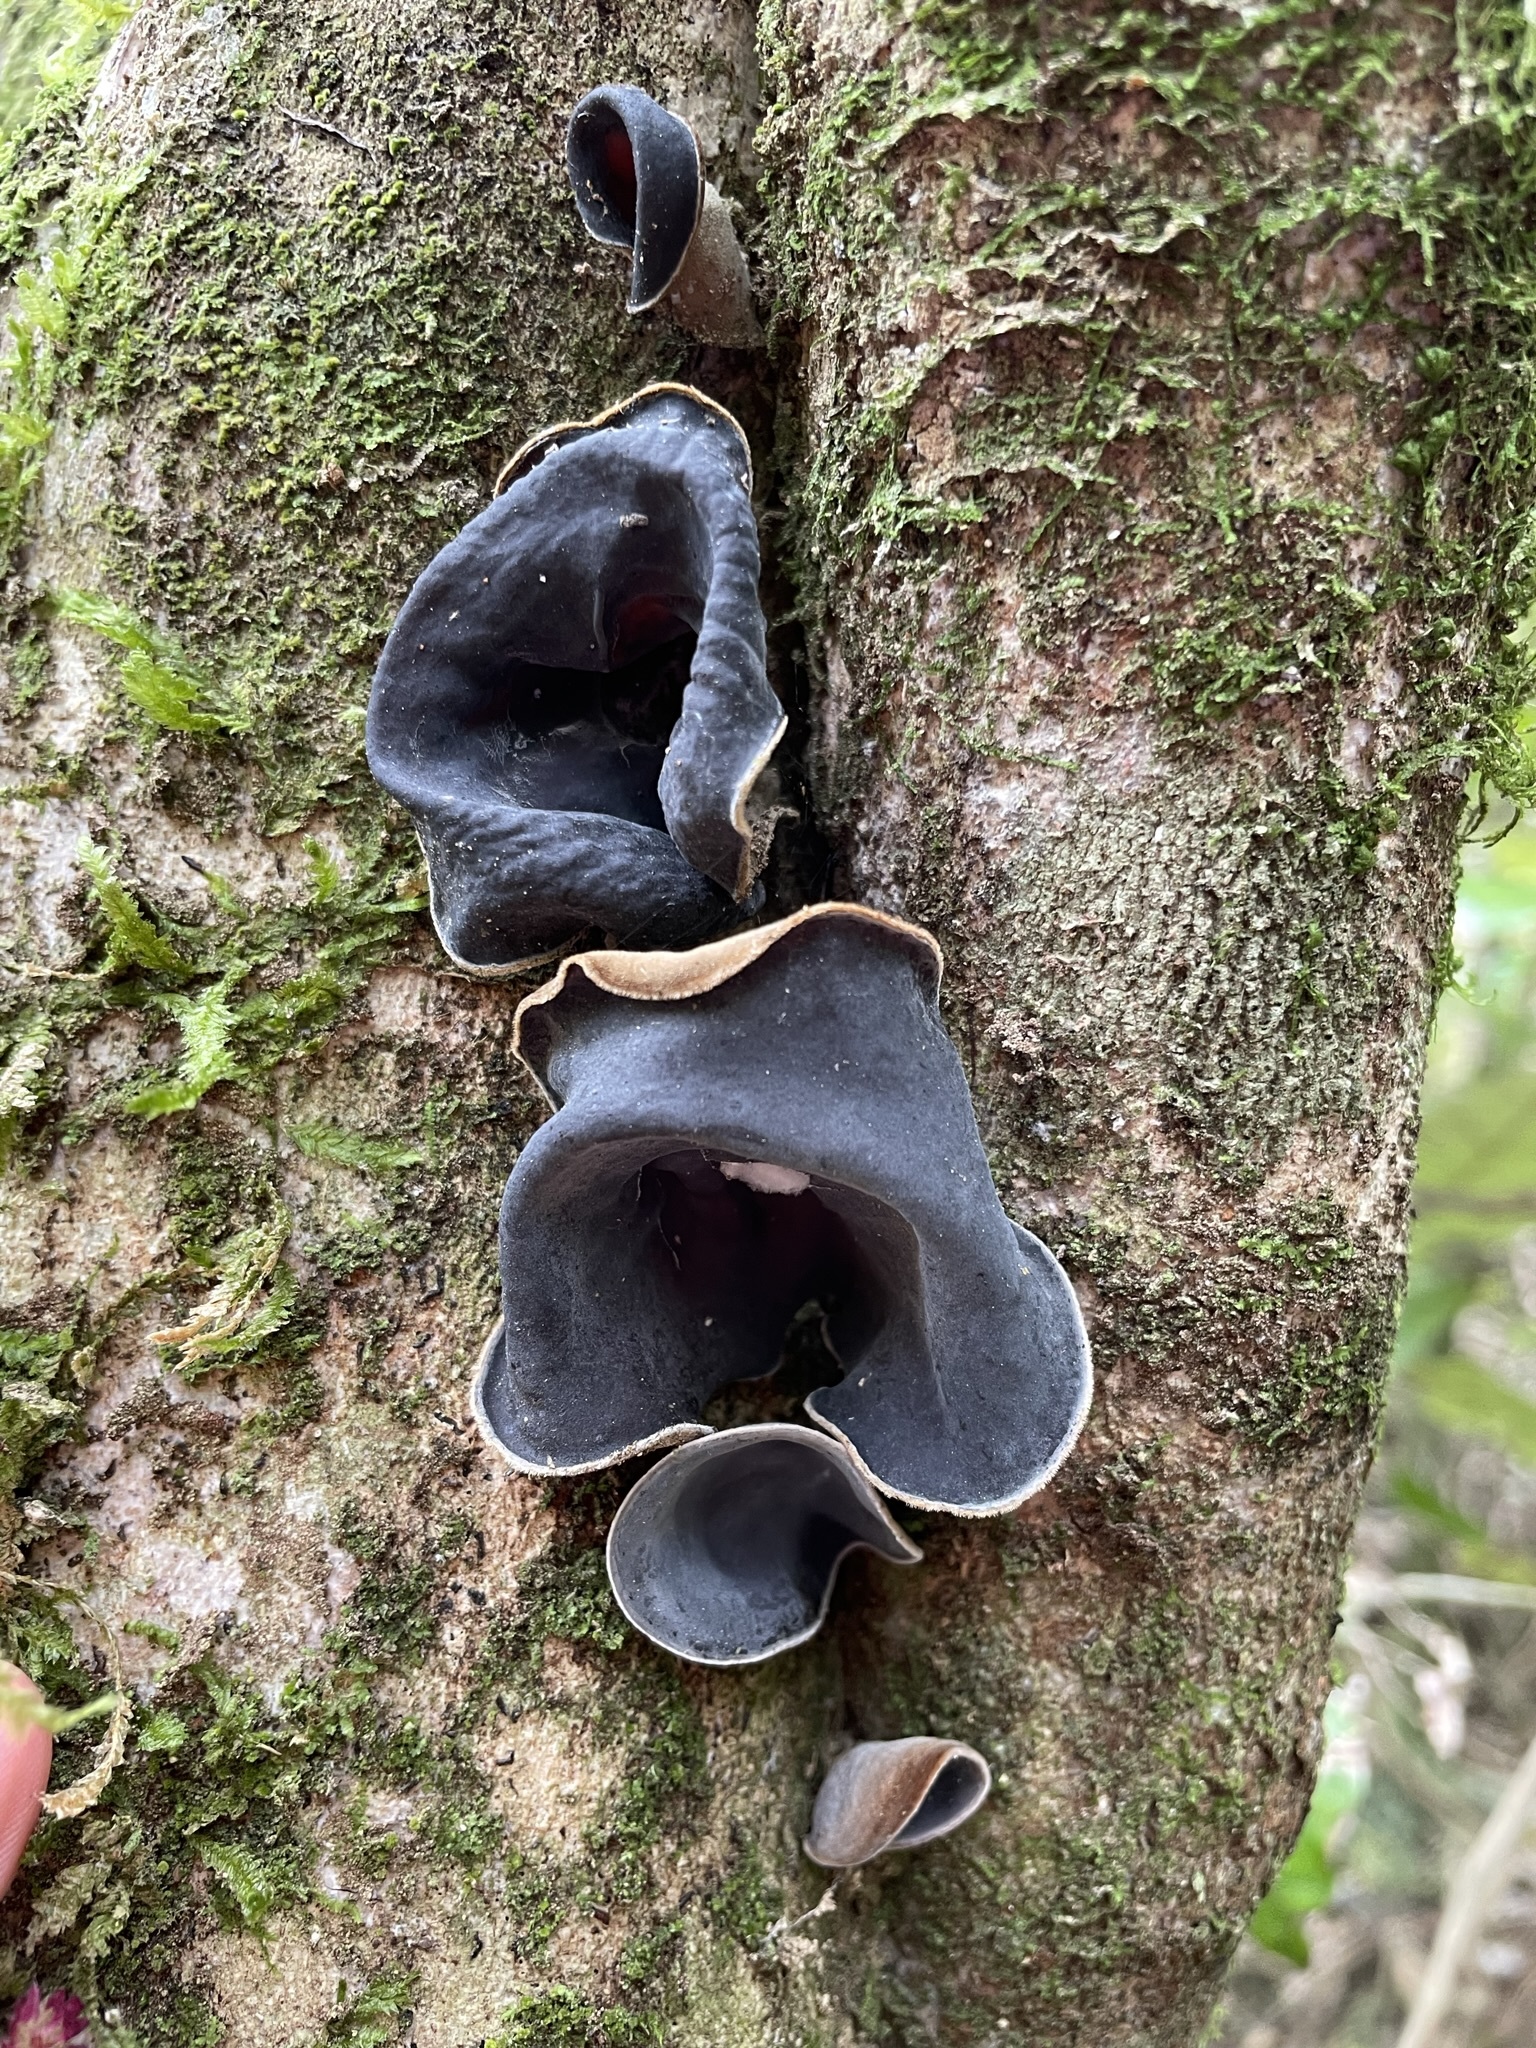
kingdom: Fungi
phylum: Basidiomycota
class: Agaricomycetes
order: Auriculariales
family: Auriculariaceae
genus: Auricularia
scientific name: Auricularia cornea
